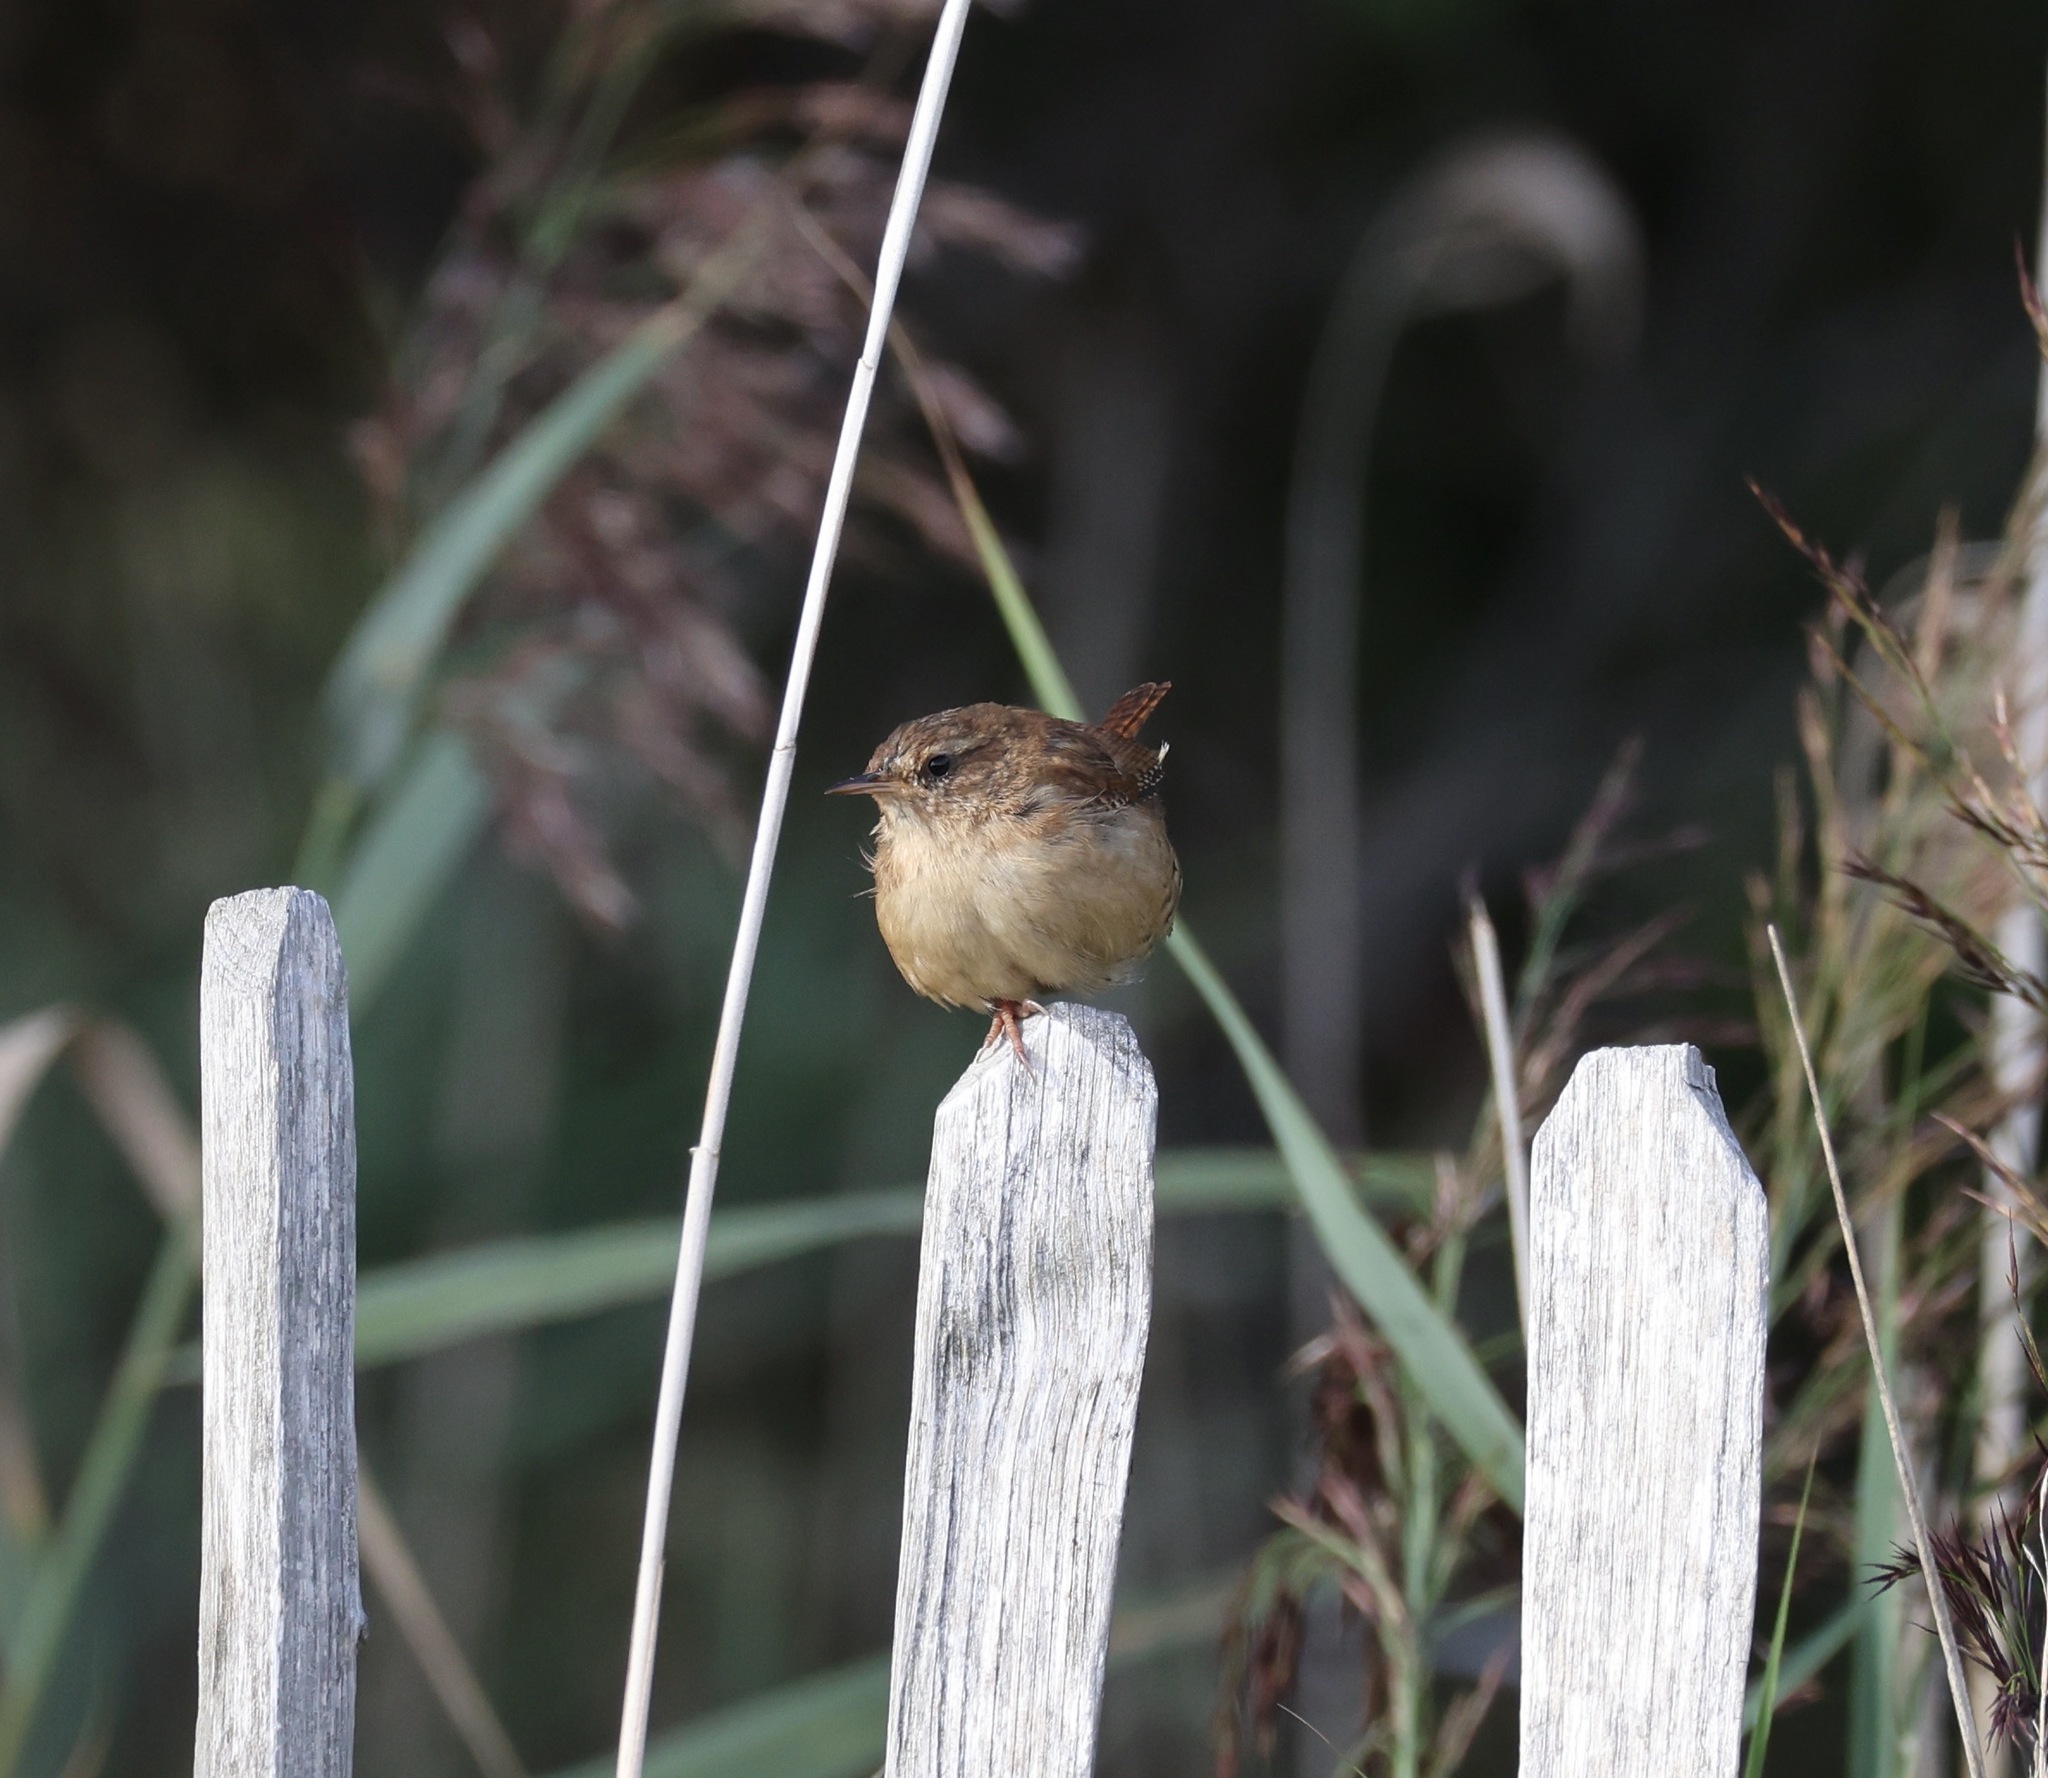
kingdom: Animalia
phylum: Chordata
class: Aves
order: Passeriformes
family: Troglodytidae
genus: Troglodytes
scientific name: Troglodytes troglodytes
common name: Eurasian wren
